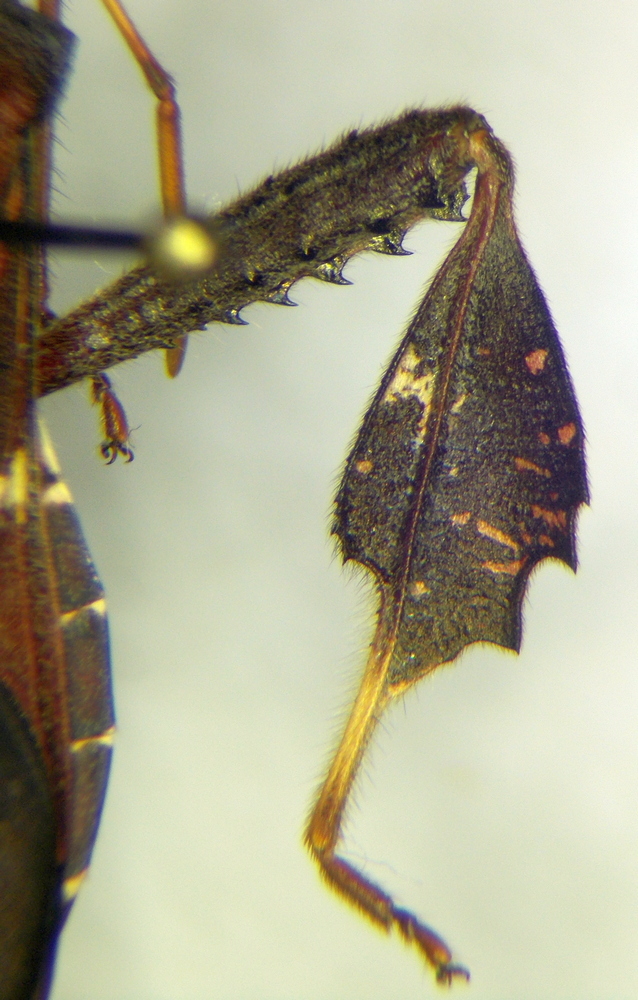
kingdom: Animalia
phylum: Arthropoda
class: Insecta
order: Hemiptera
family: Coreidae
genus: Leptoglossus
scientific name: Leptoglossus zonatus
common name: Large-legged bug
